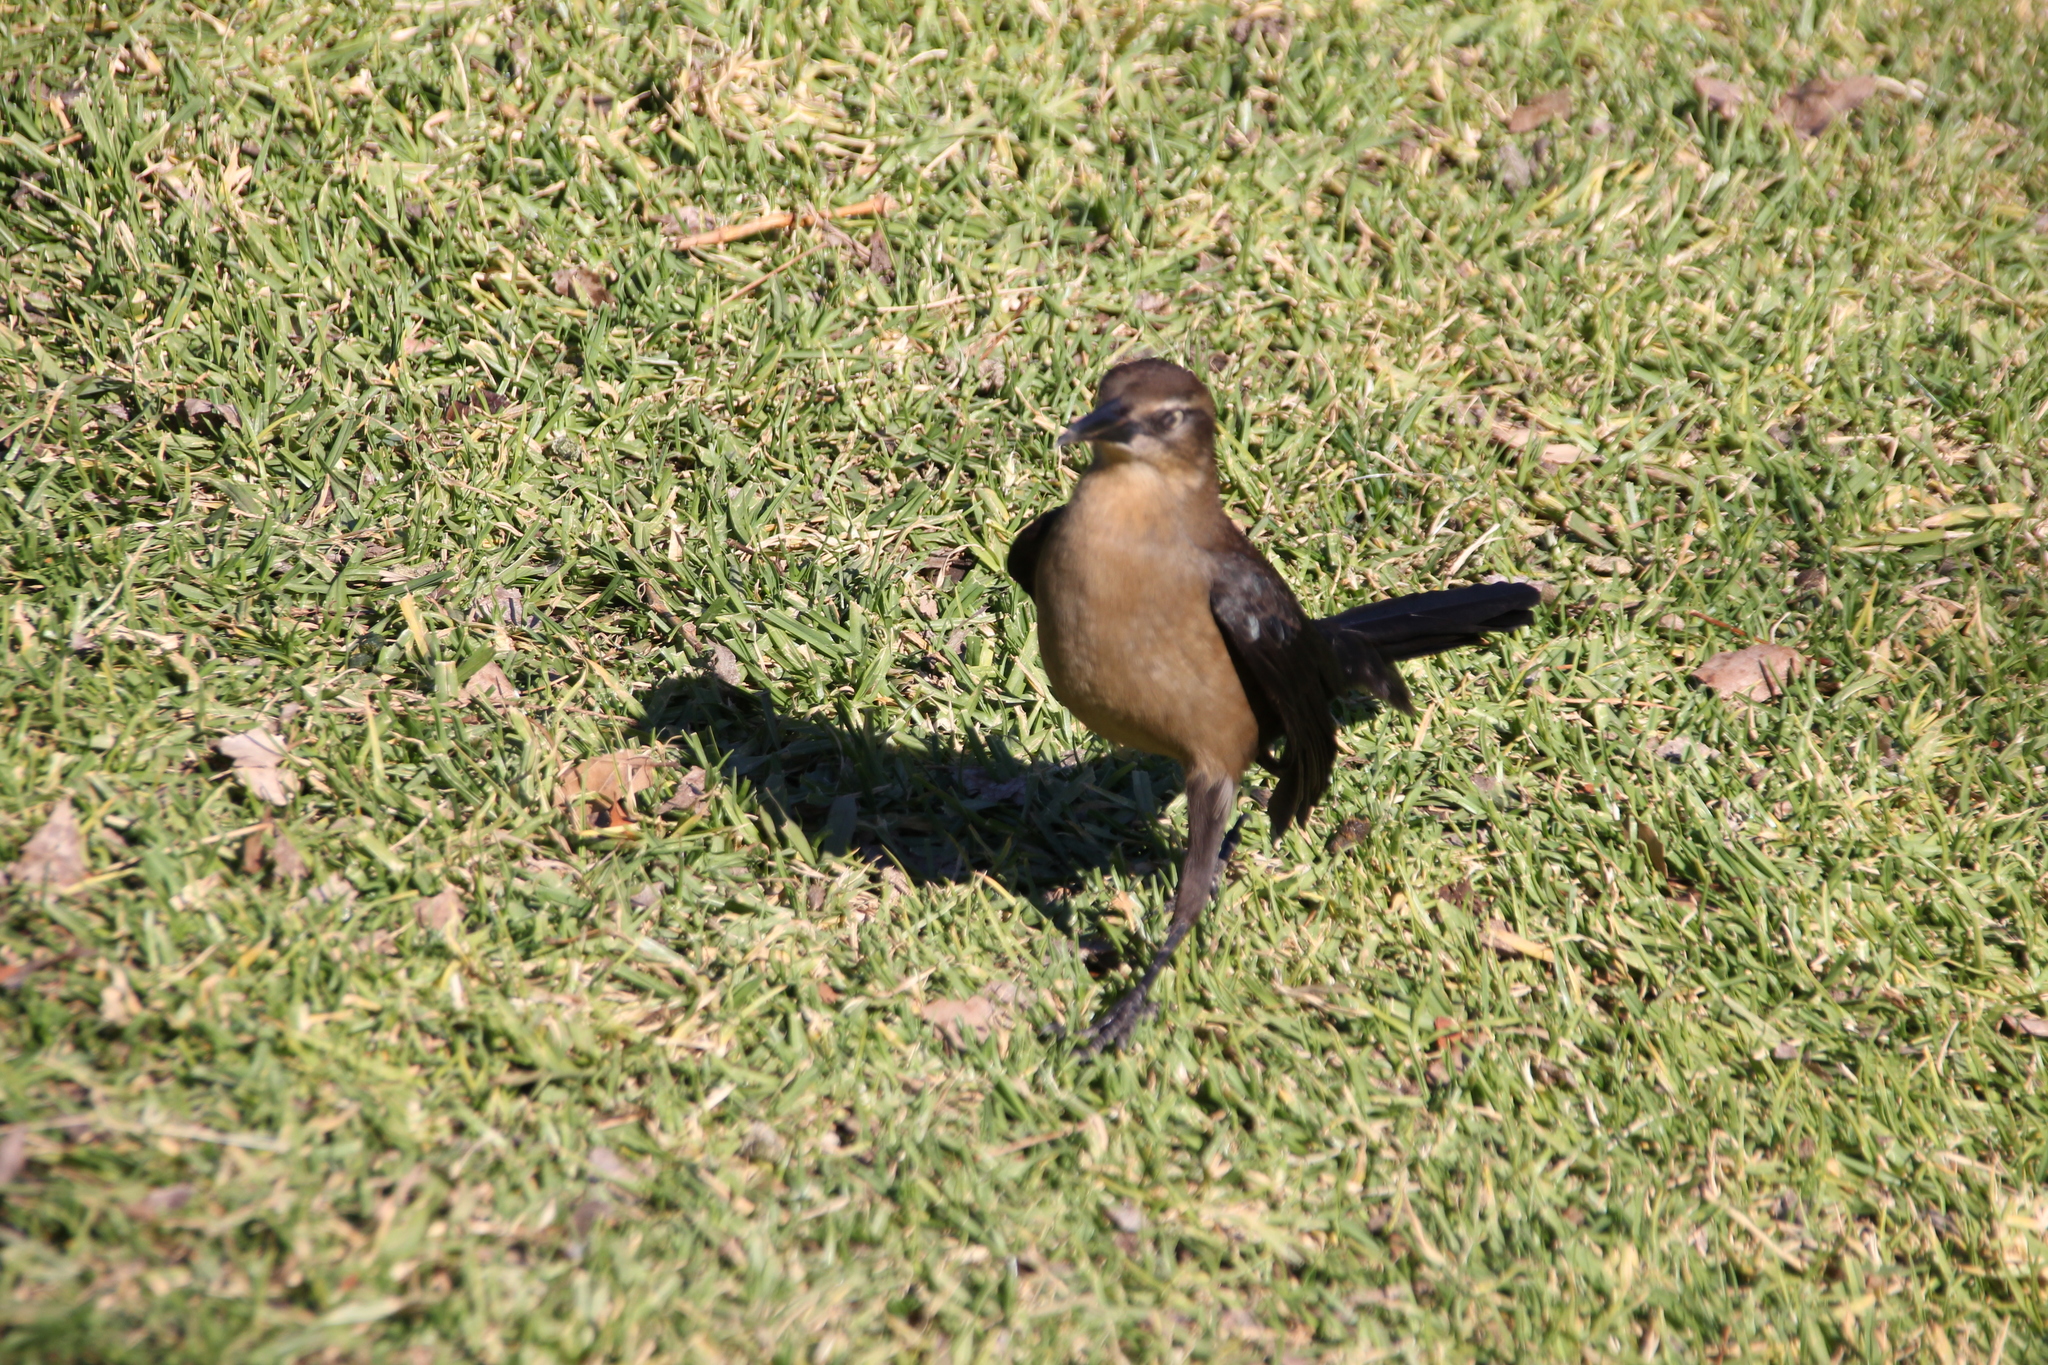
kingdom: Animalia
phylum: Chordata
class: Aves
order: Passeriformes
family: Icteridae
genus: Quiscalus
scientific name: Quiscalus mexicanus
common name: Great-tailed grackle
